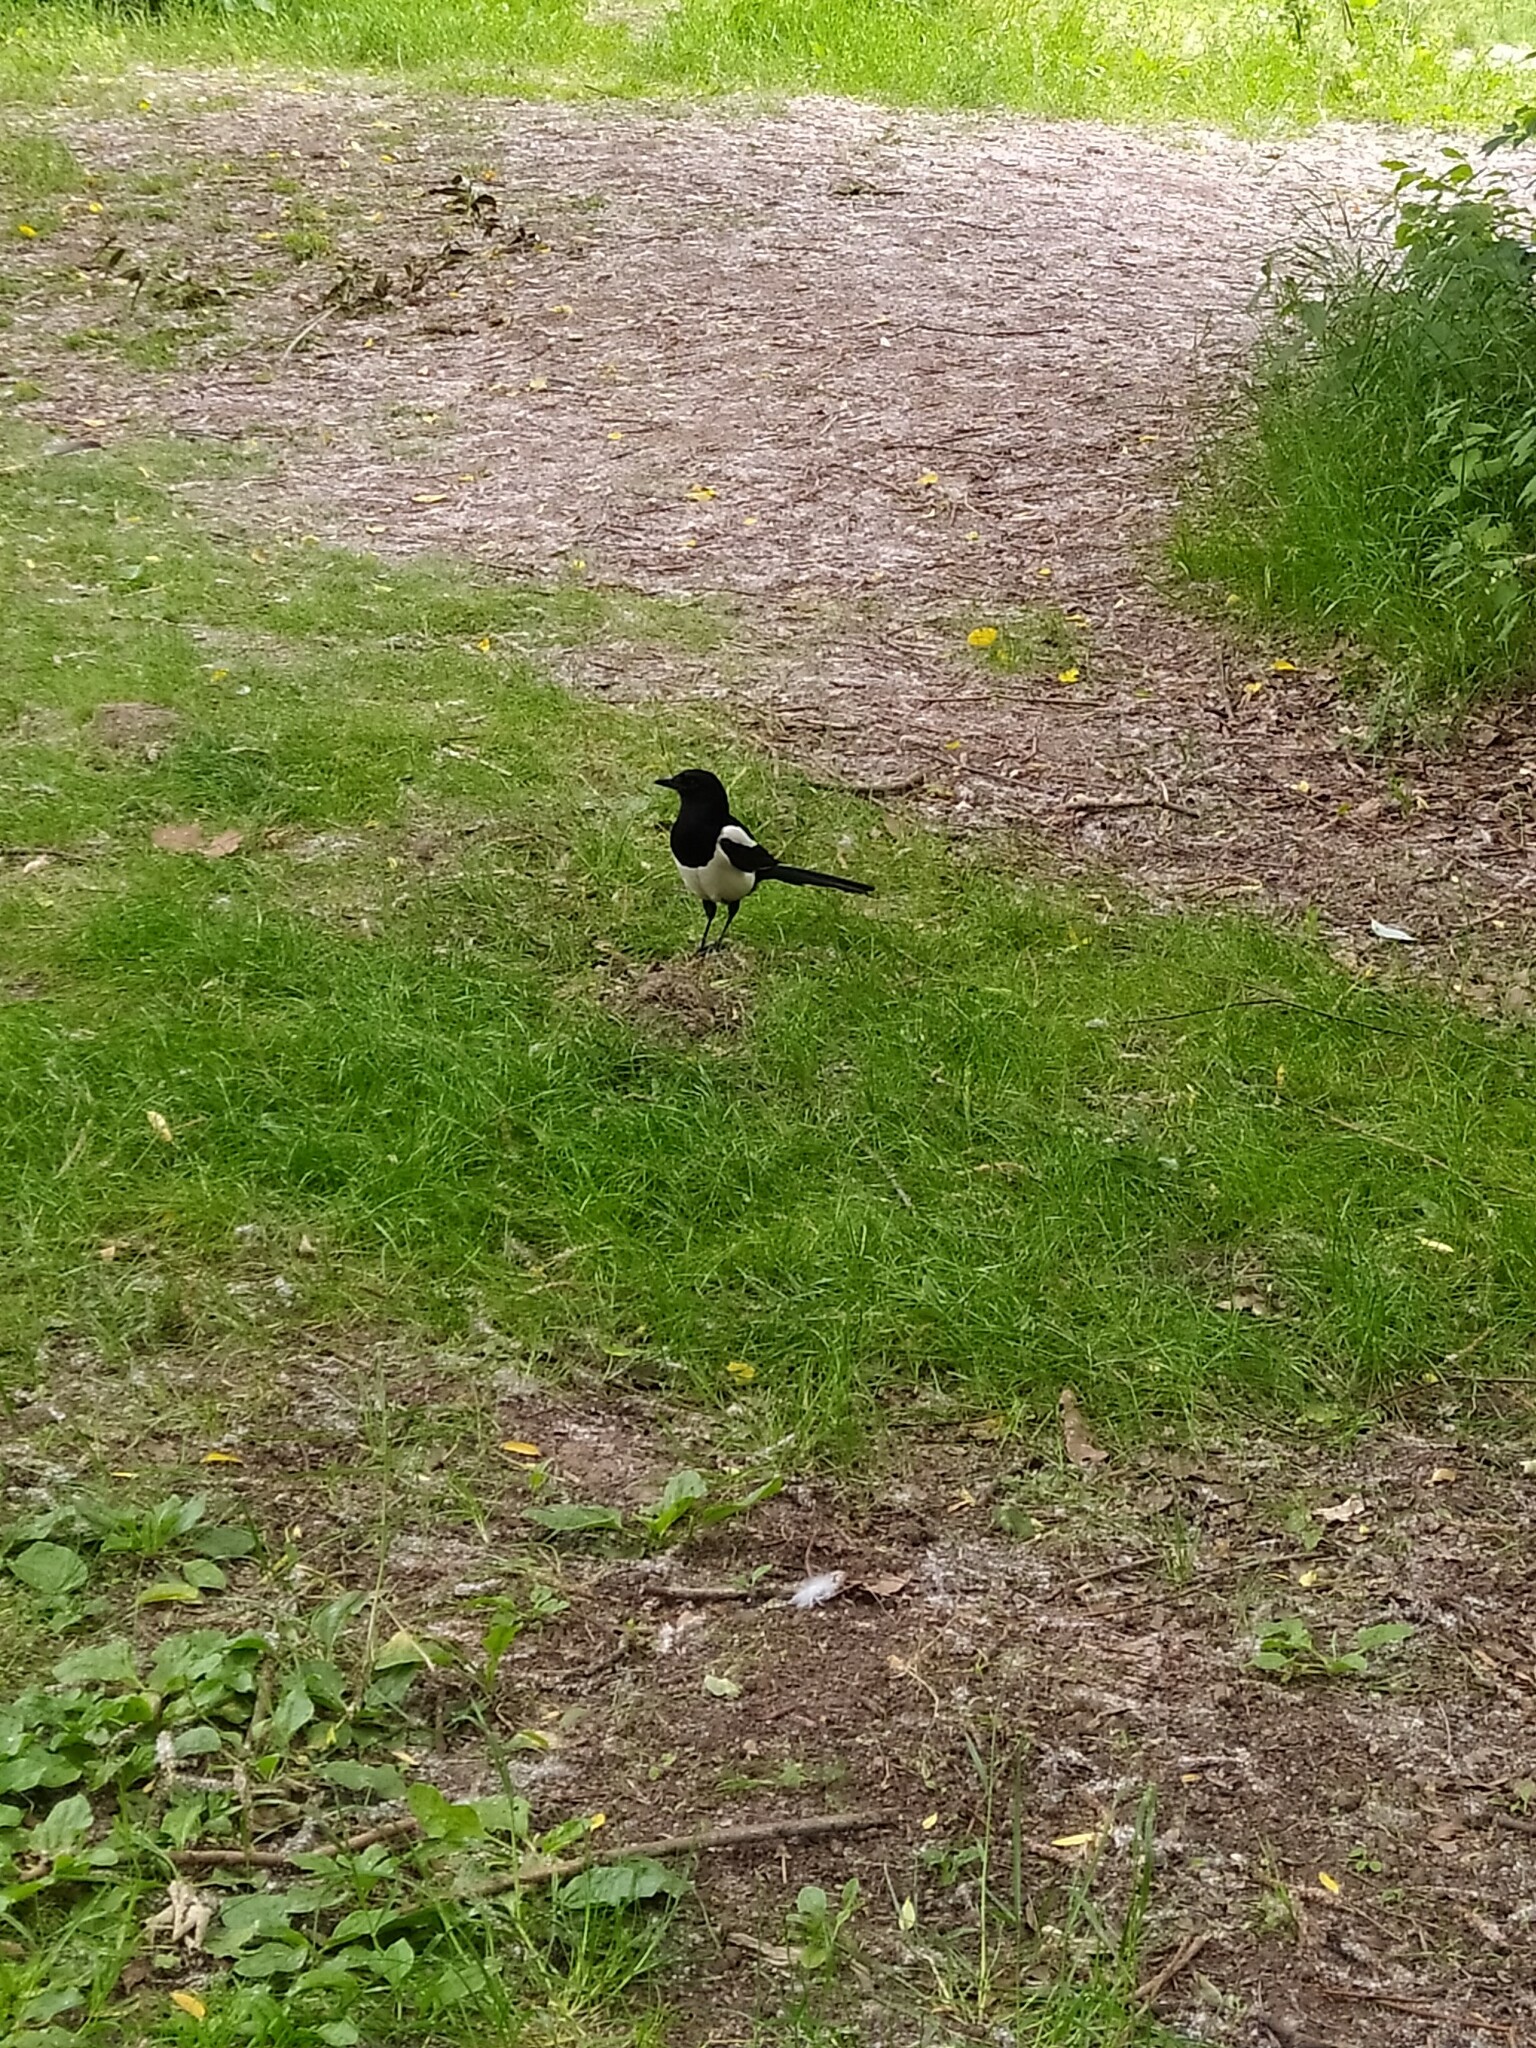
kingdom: Animalia
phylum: Chordata
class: Aves
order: Passeriformes
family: Corvidae
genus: Pica
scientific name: Pica pica
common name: Eurasian magpie
